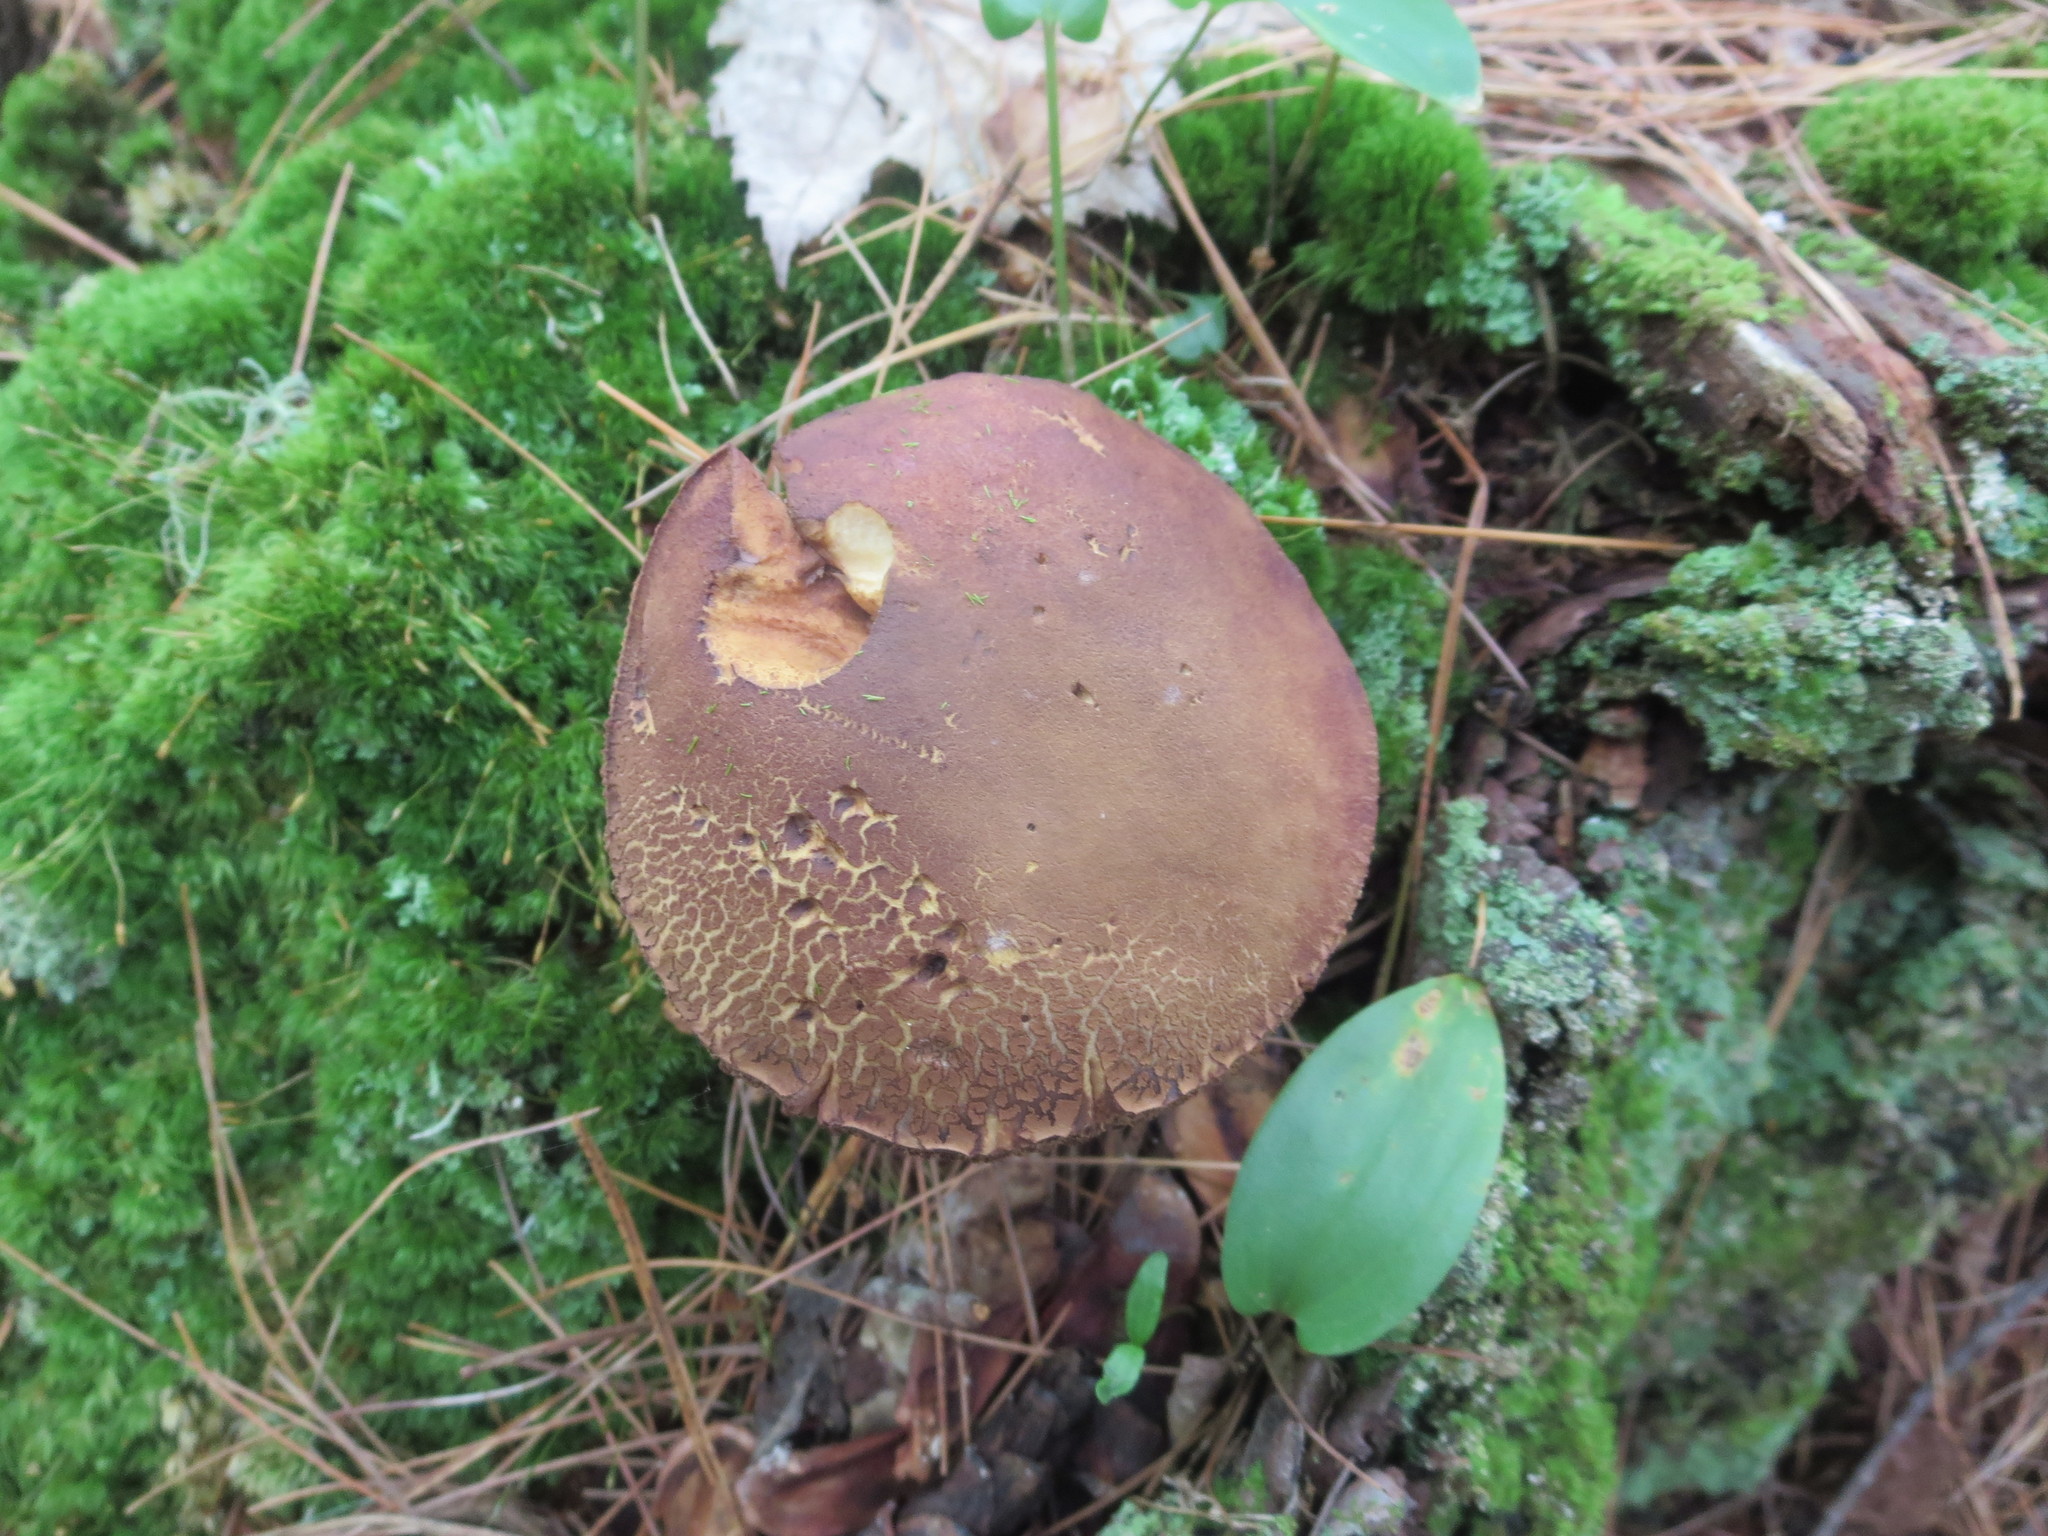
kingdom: Fungi
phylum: Basidiomycota
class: Agaricomycetes
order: Boletales
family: Boletaceae
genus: Imleria
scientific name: Imleria badia
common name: Bay bolete
